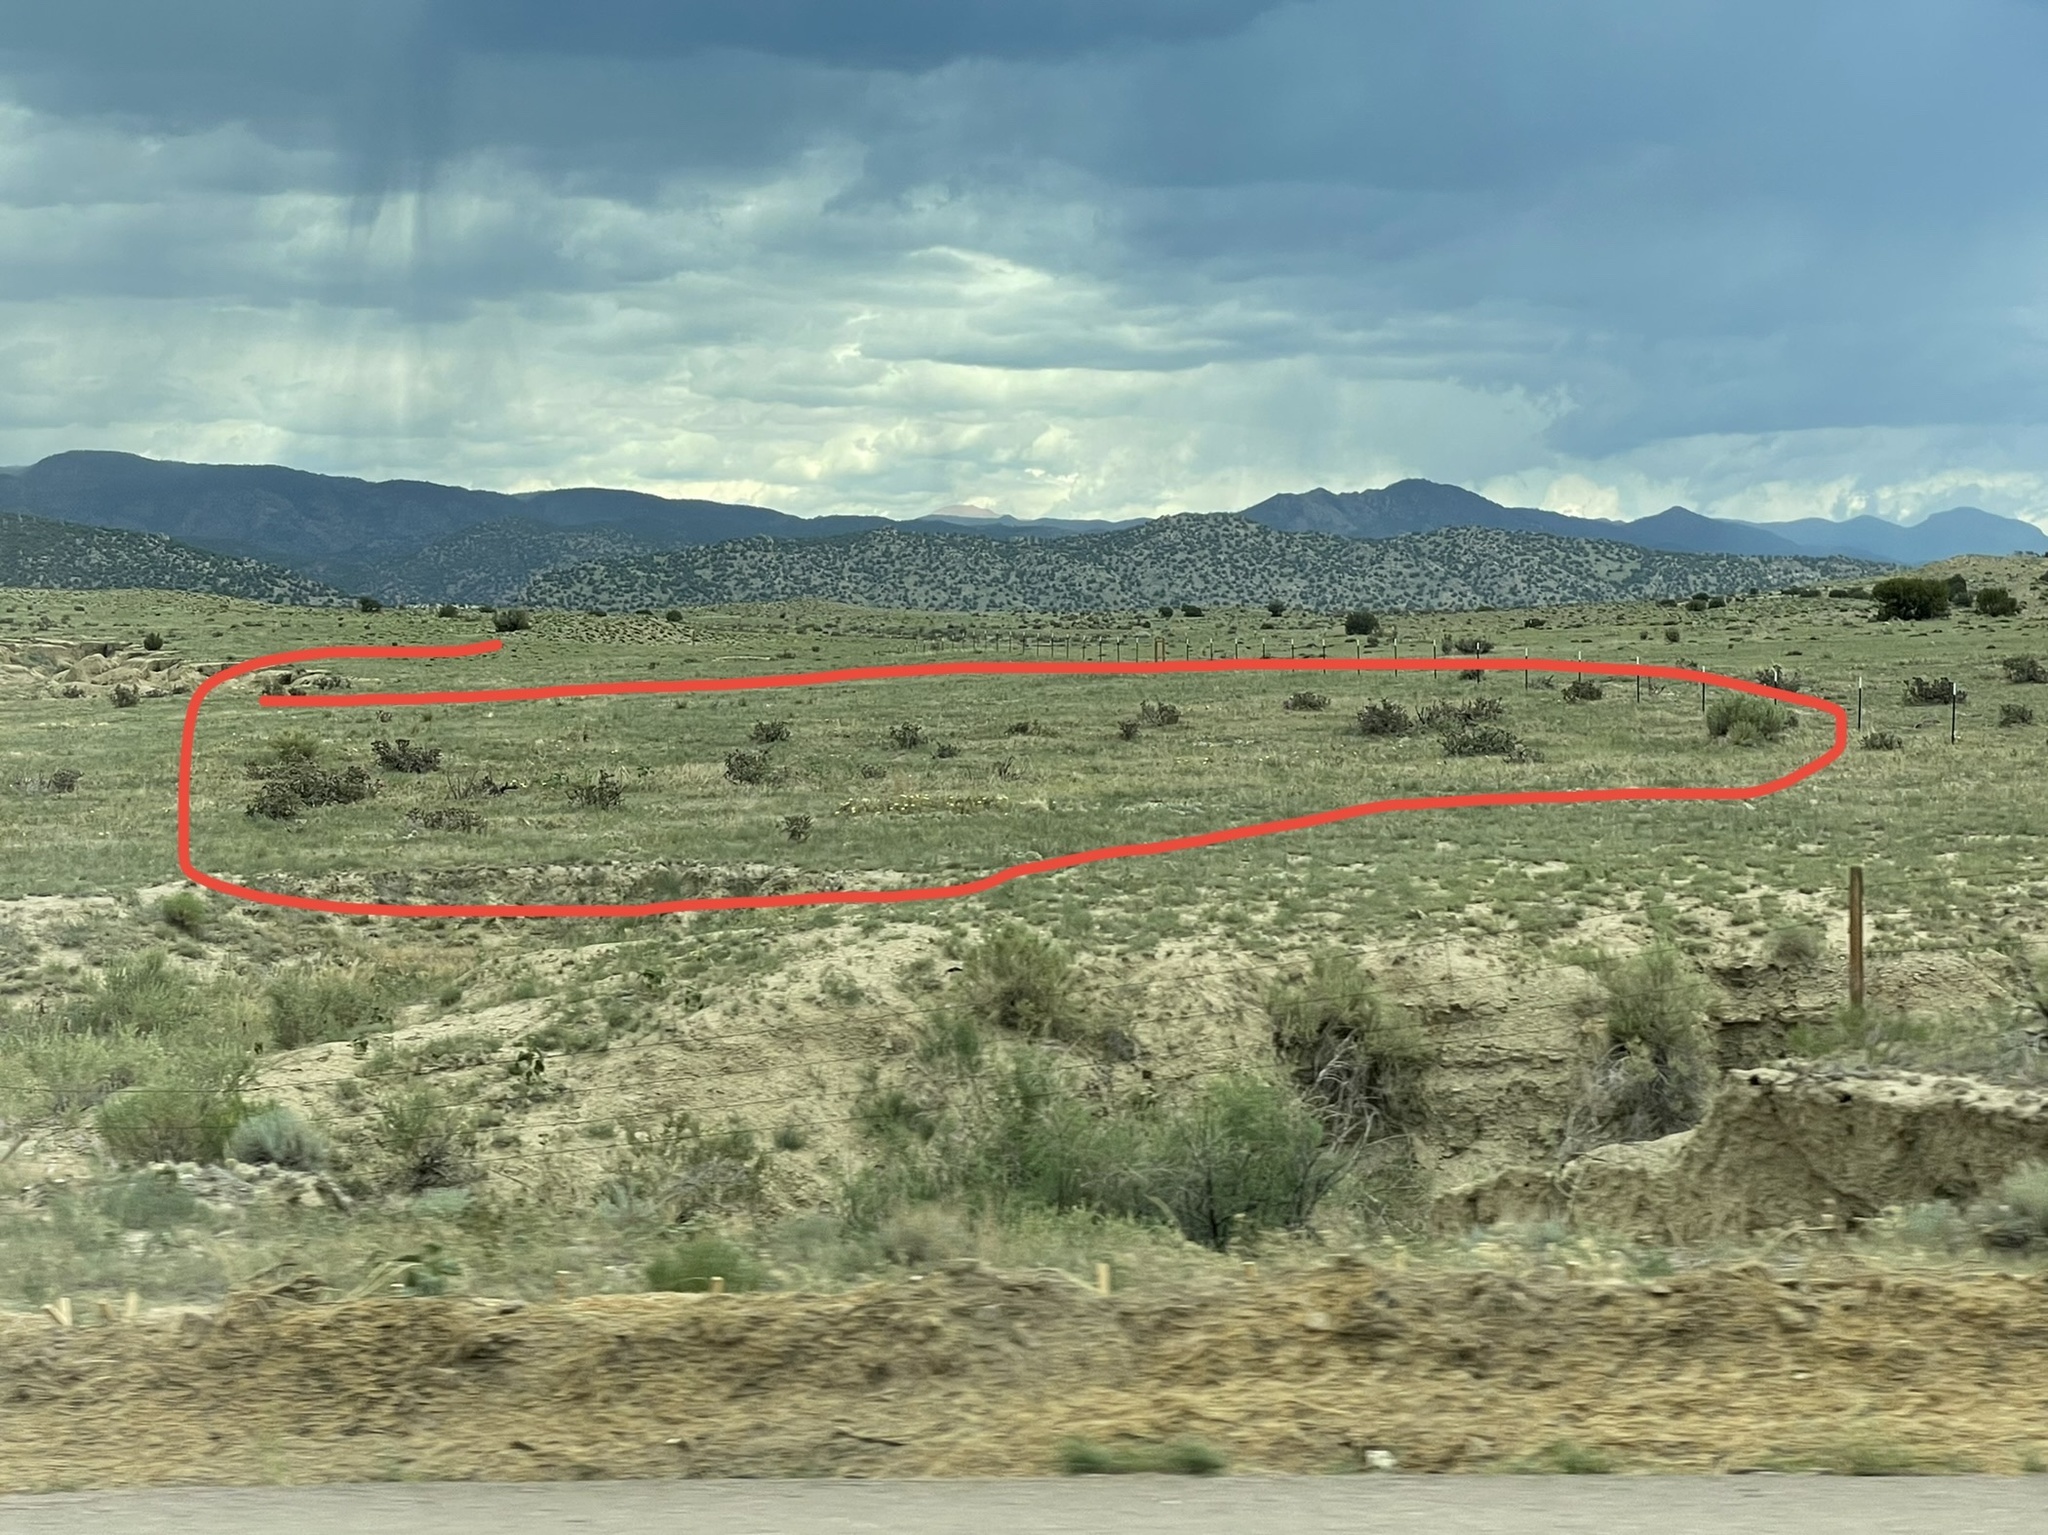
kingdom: Plantae
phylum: Tracheophyta
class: Magnoliopsida
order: Caryophyllales
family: Cactaceae
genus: Cylindropuntia
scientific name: Cylindropuntia imbricata
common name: Candelabrum cactus
